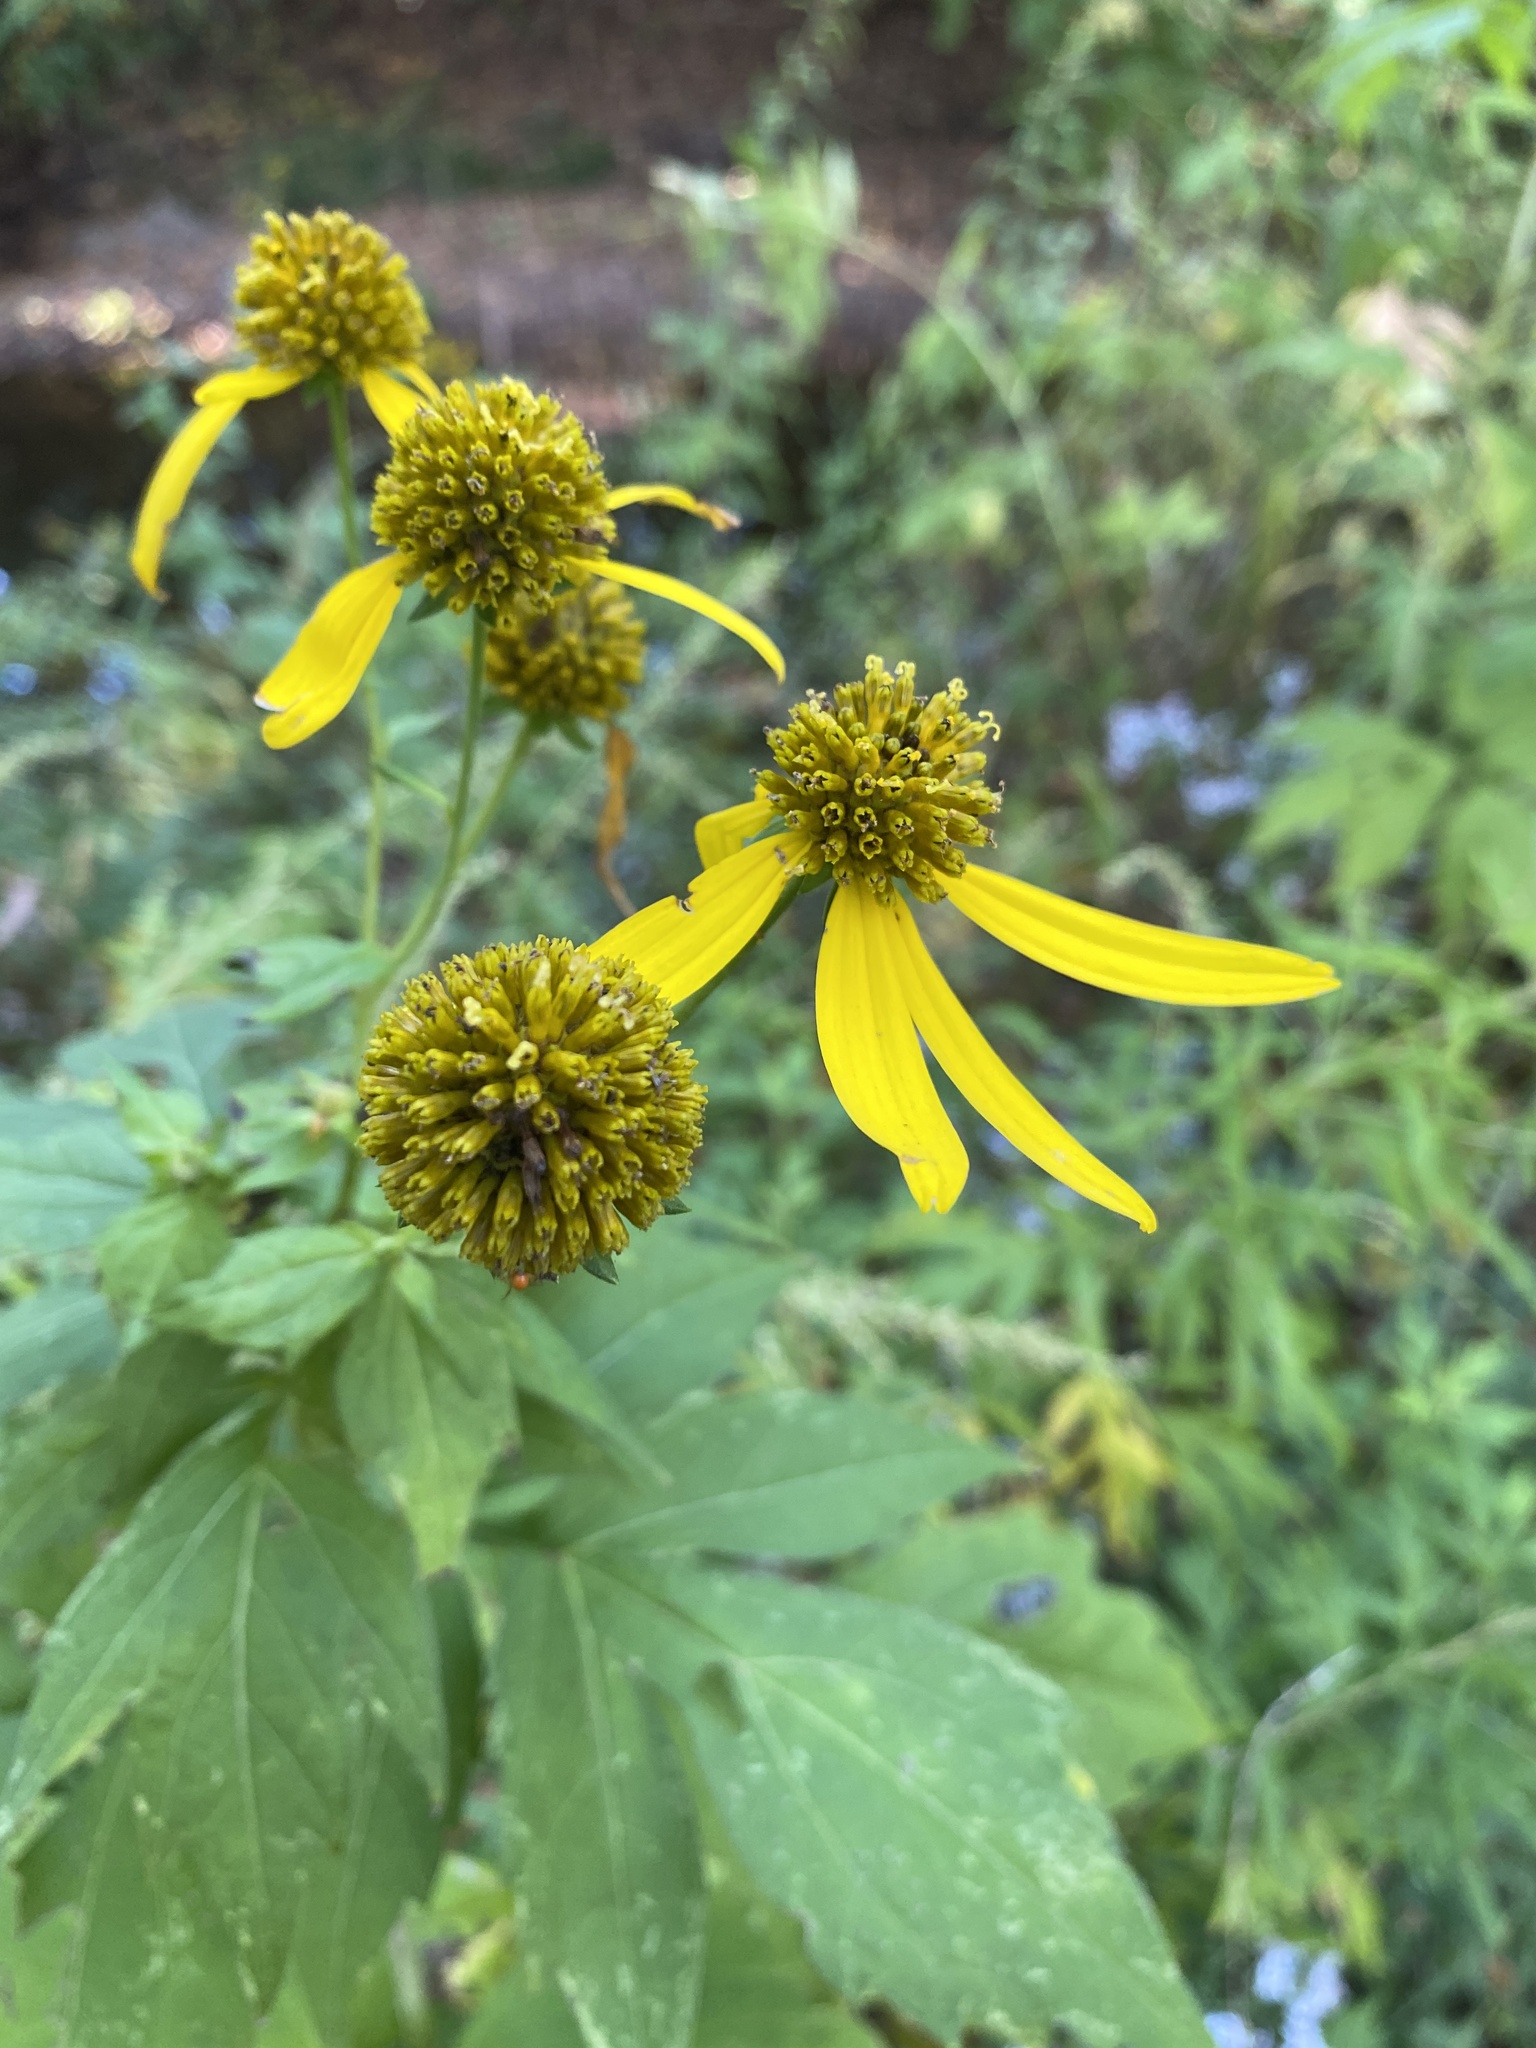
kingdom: Plantae
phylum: Tracheophyta
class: Magnoliopsida
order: Asterales
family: Asteraceae
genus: Rudbeckia
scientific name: Rudbeckia laciniata
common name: Coneflower
